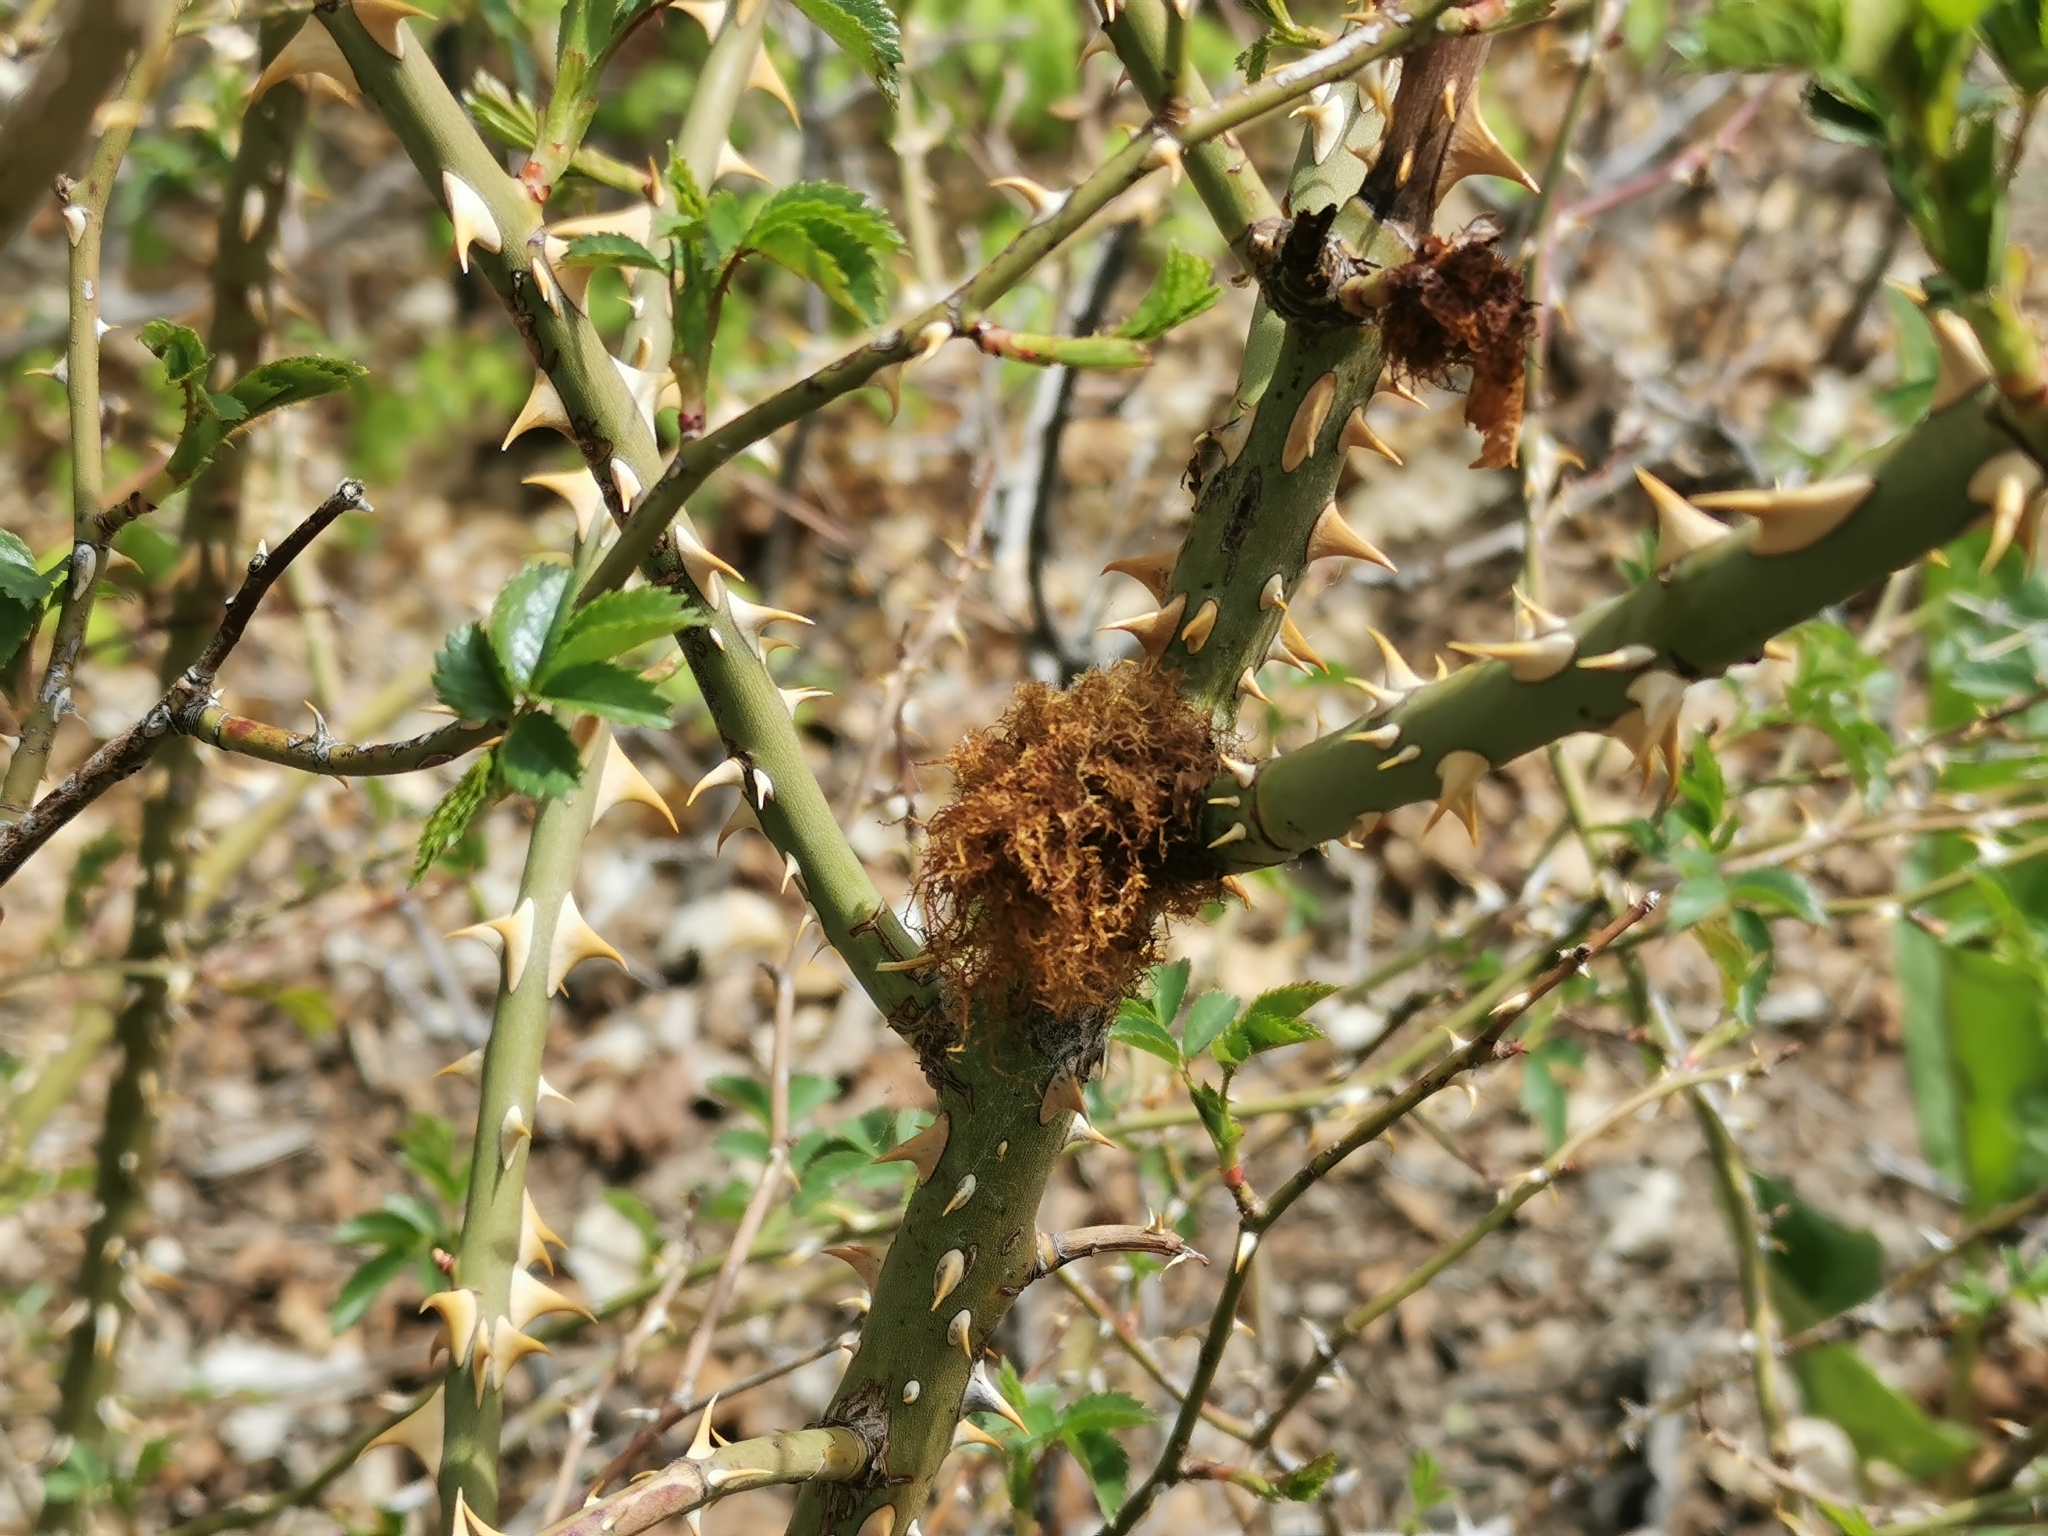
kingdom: Animalia
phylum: Arthropoda
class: Insecta
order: Hymenoptera
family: Cynipidae
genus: Diplolepis
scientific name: Diplolepis rosae
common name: Bedeguar gall
